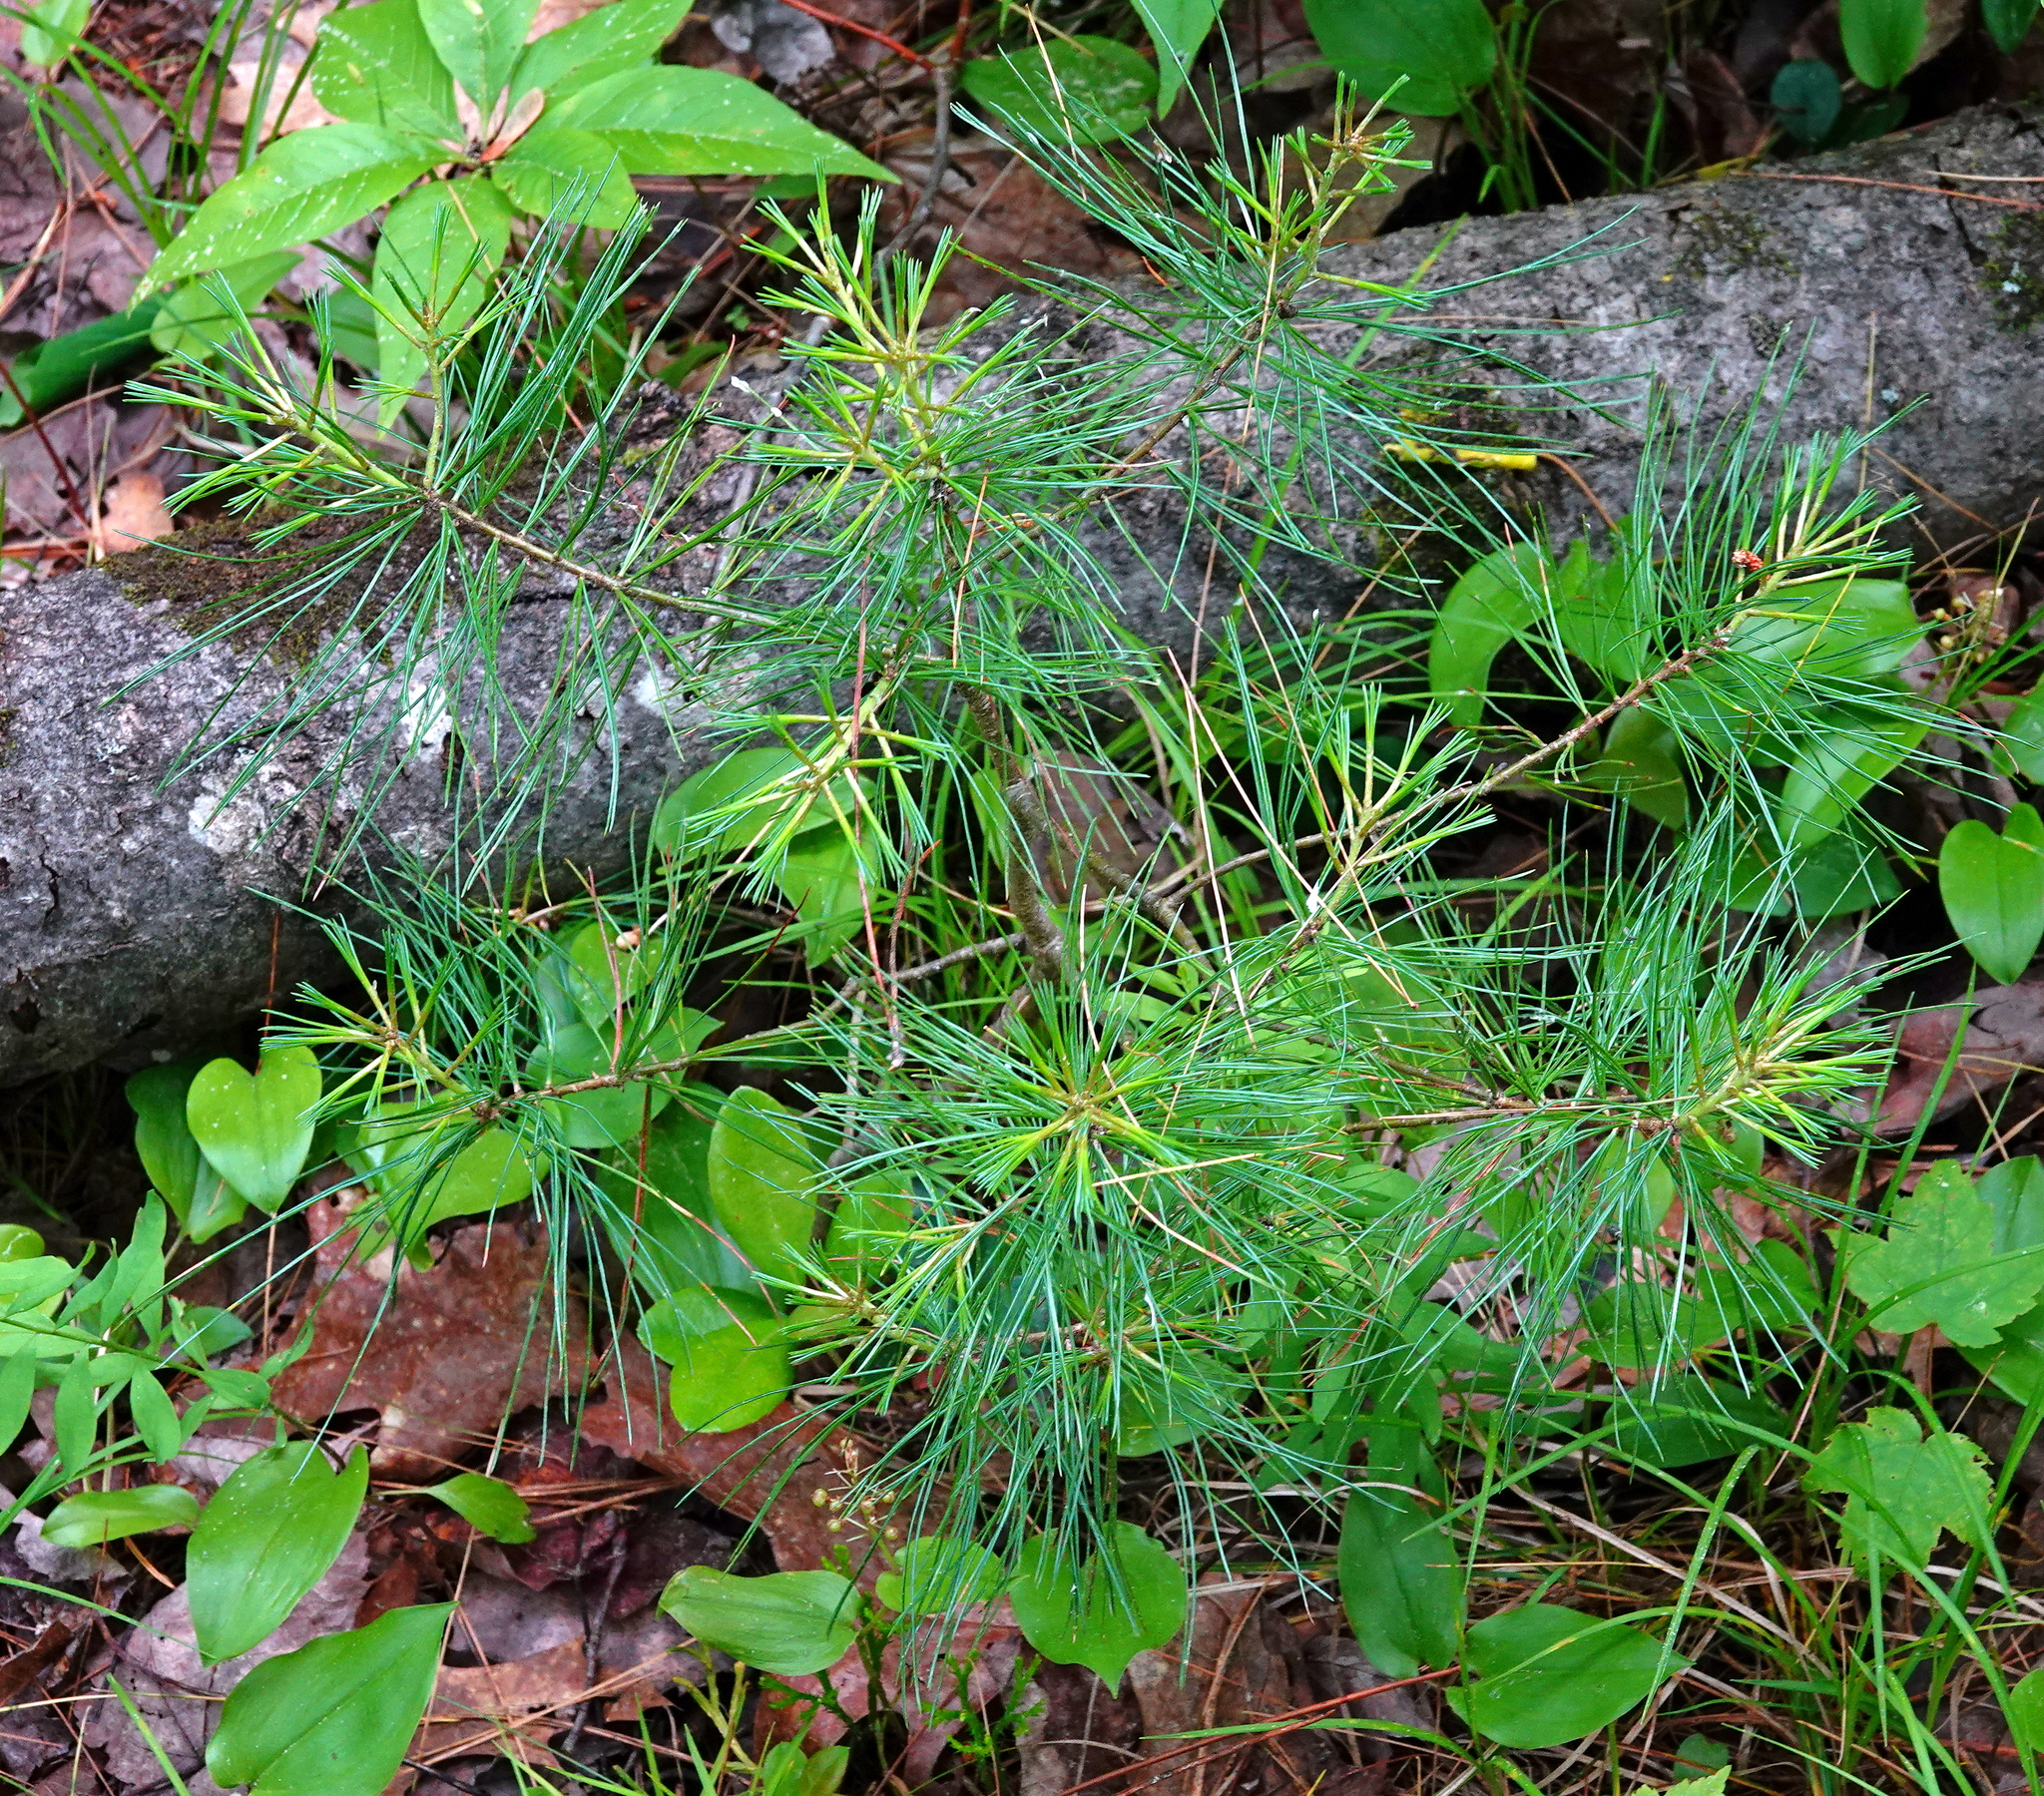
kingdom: Plantae
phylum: Tracheophyta
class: Pinopsida
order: Pinales
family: Pinaceae
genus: Pinus
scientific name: Pinus strobus
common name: Weymouth pine
